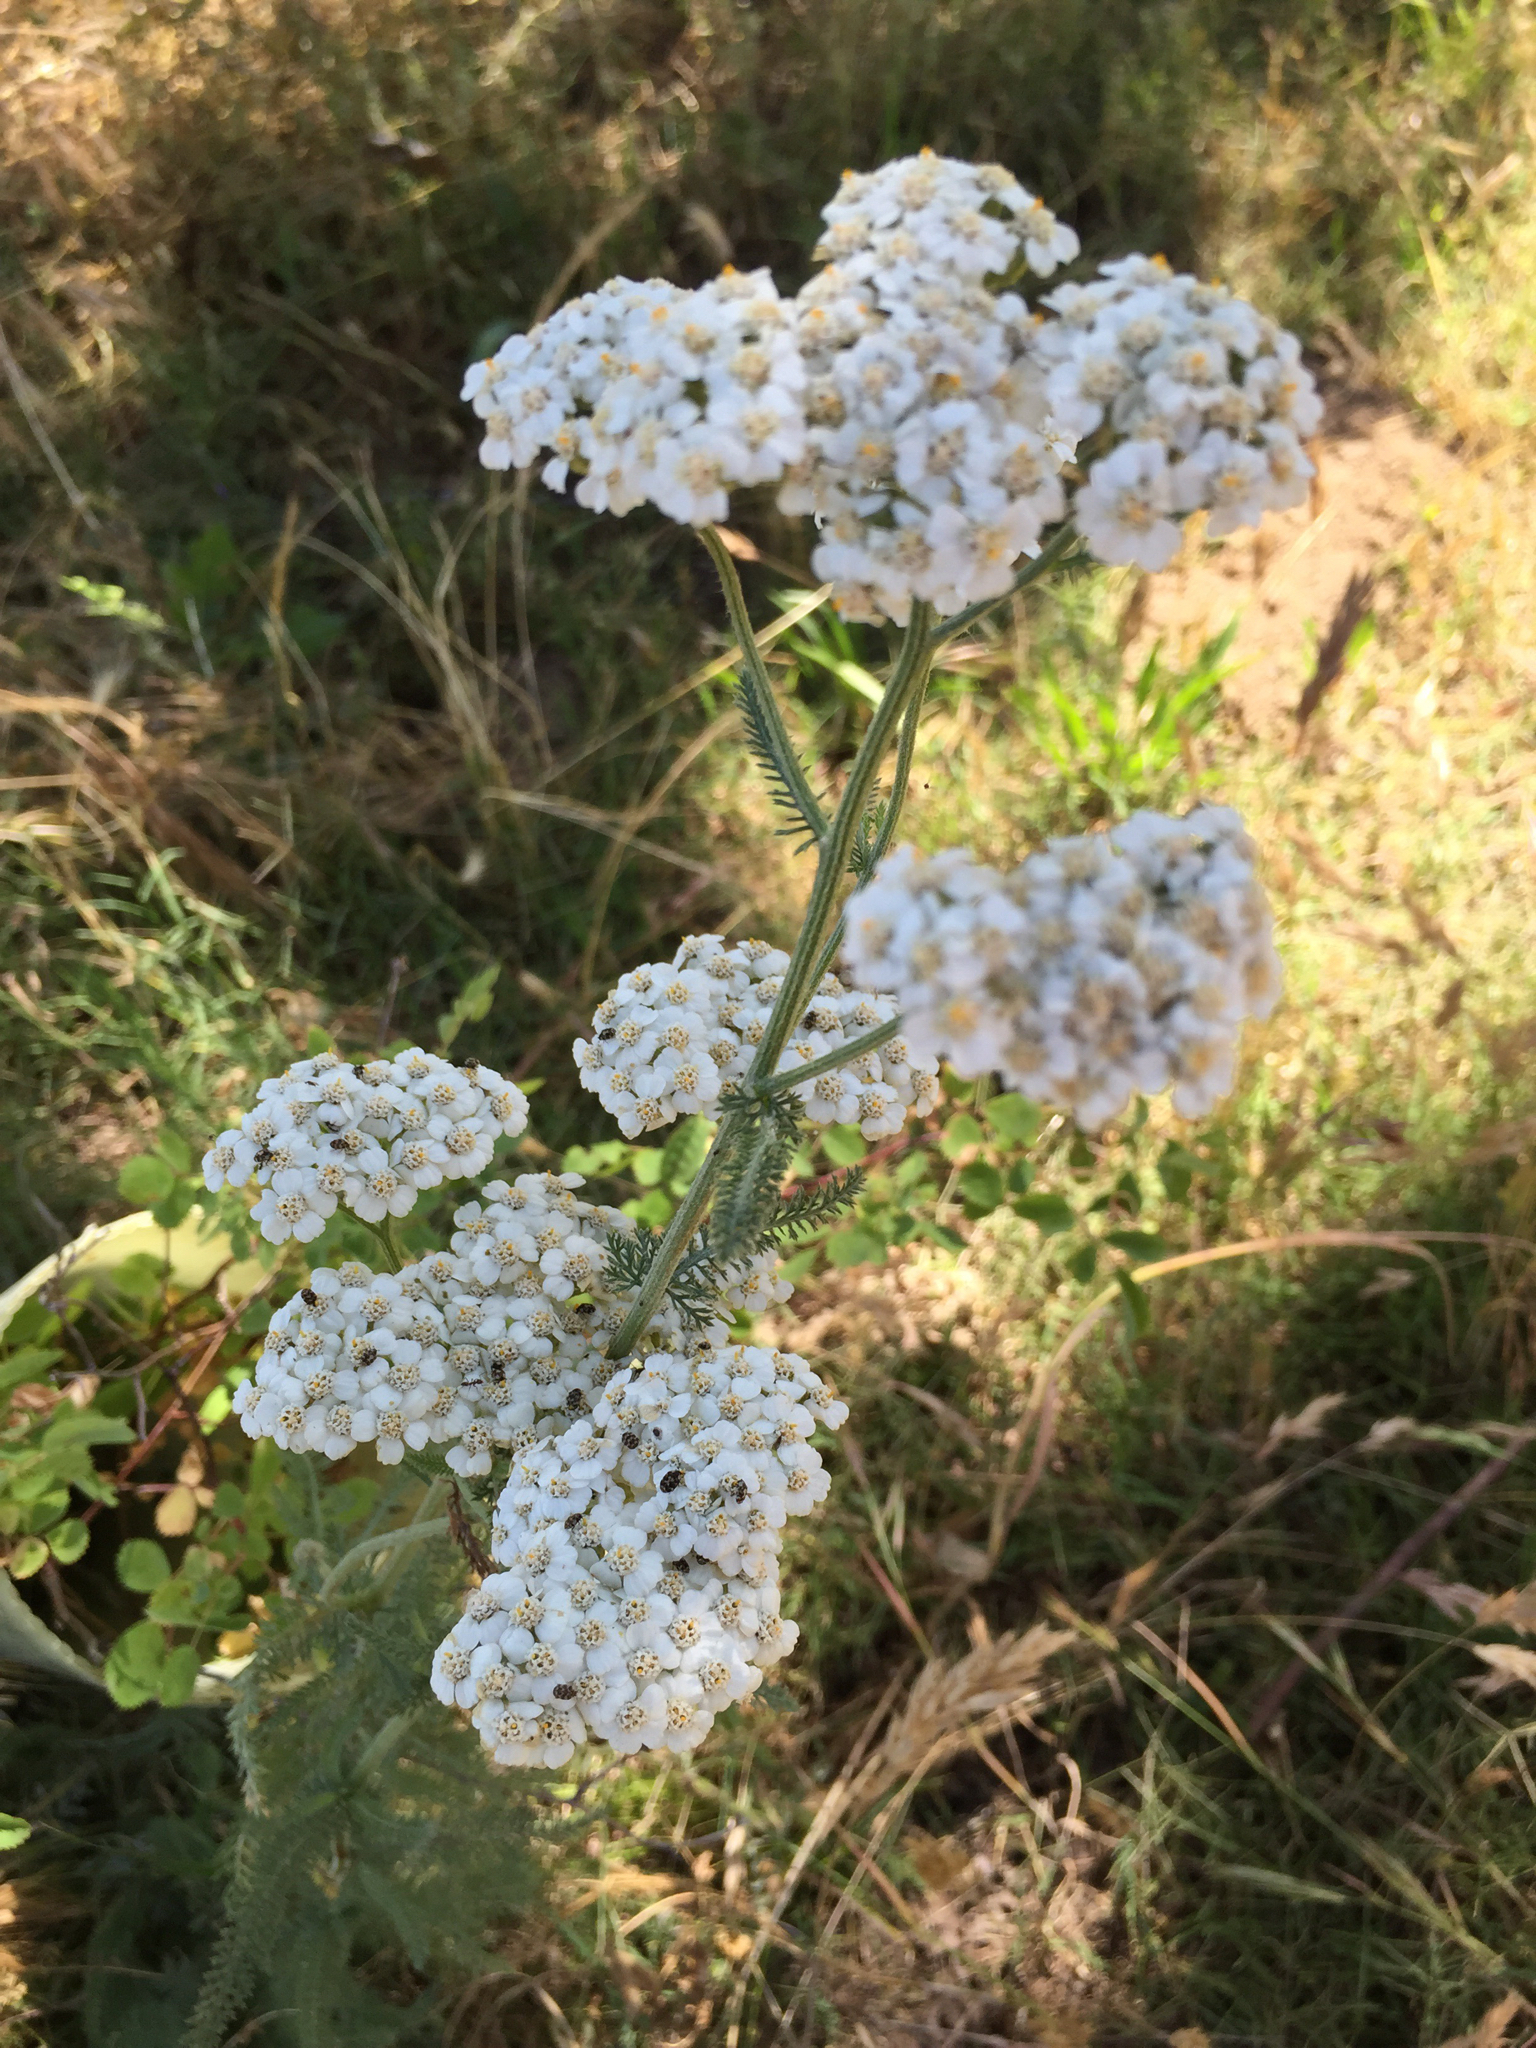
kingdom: Plantae
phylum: Tracheophyta
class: Magnoliopsida
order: Asterales
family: Asteraceae
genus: Achillea
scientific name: Achillea millefolium
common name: Yarrow
